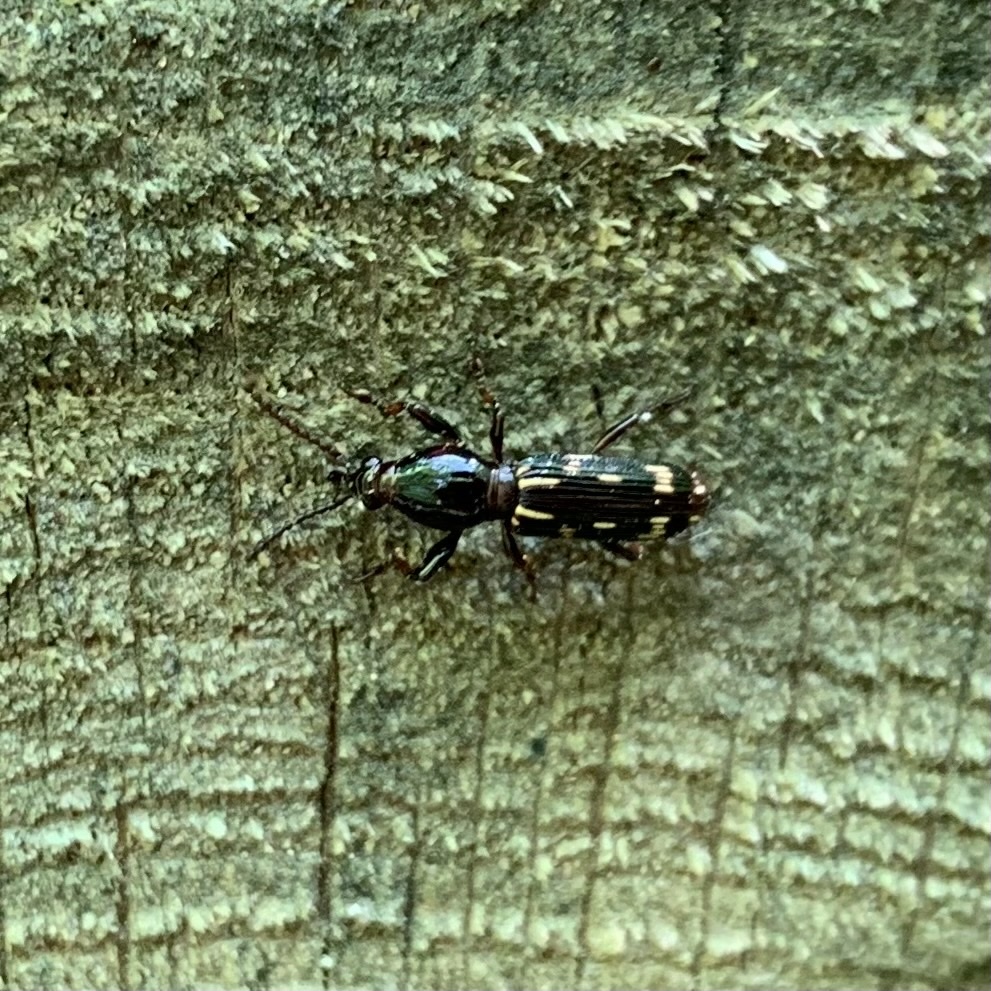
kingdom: Animalia
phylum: Arthropoda
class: Insecta
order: Coleoptera
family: Brentidae
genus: Arrenodes
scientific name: Arrenodes minutus
